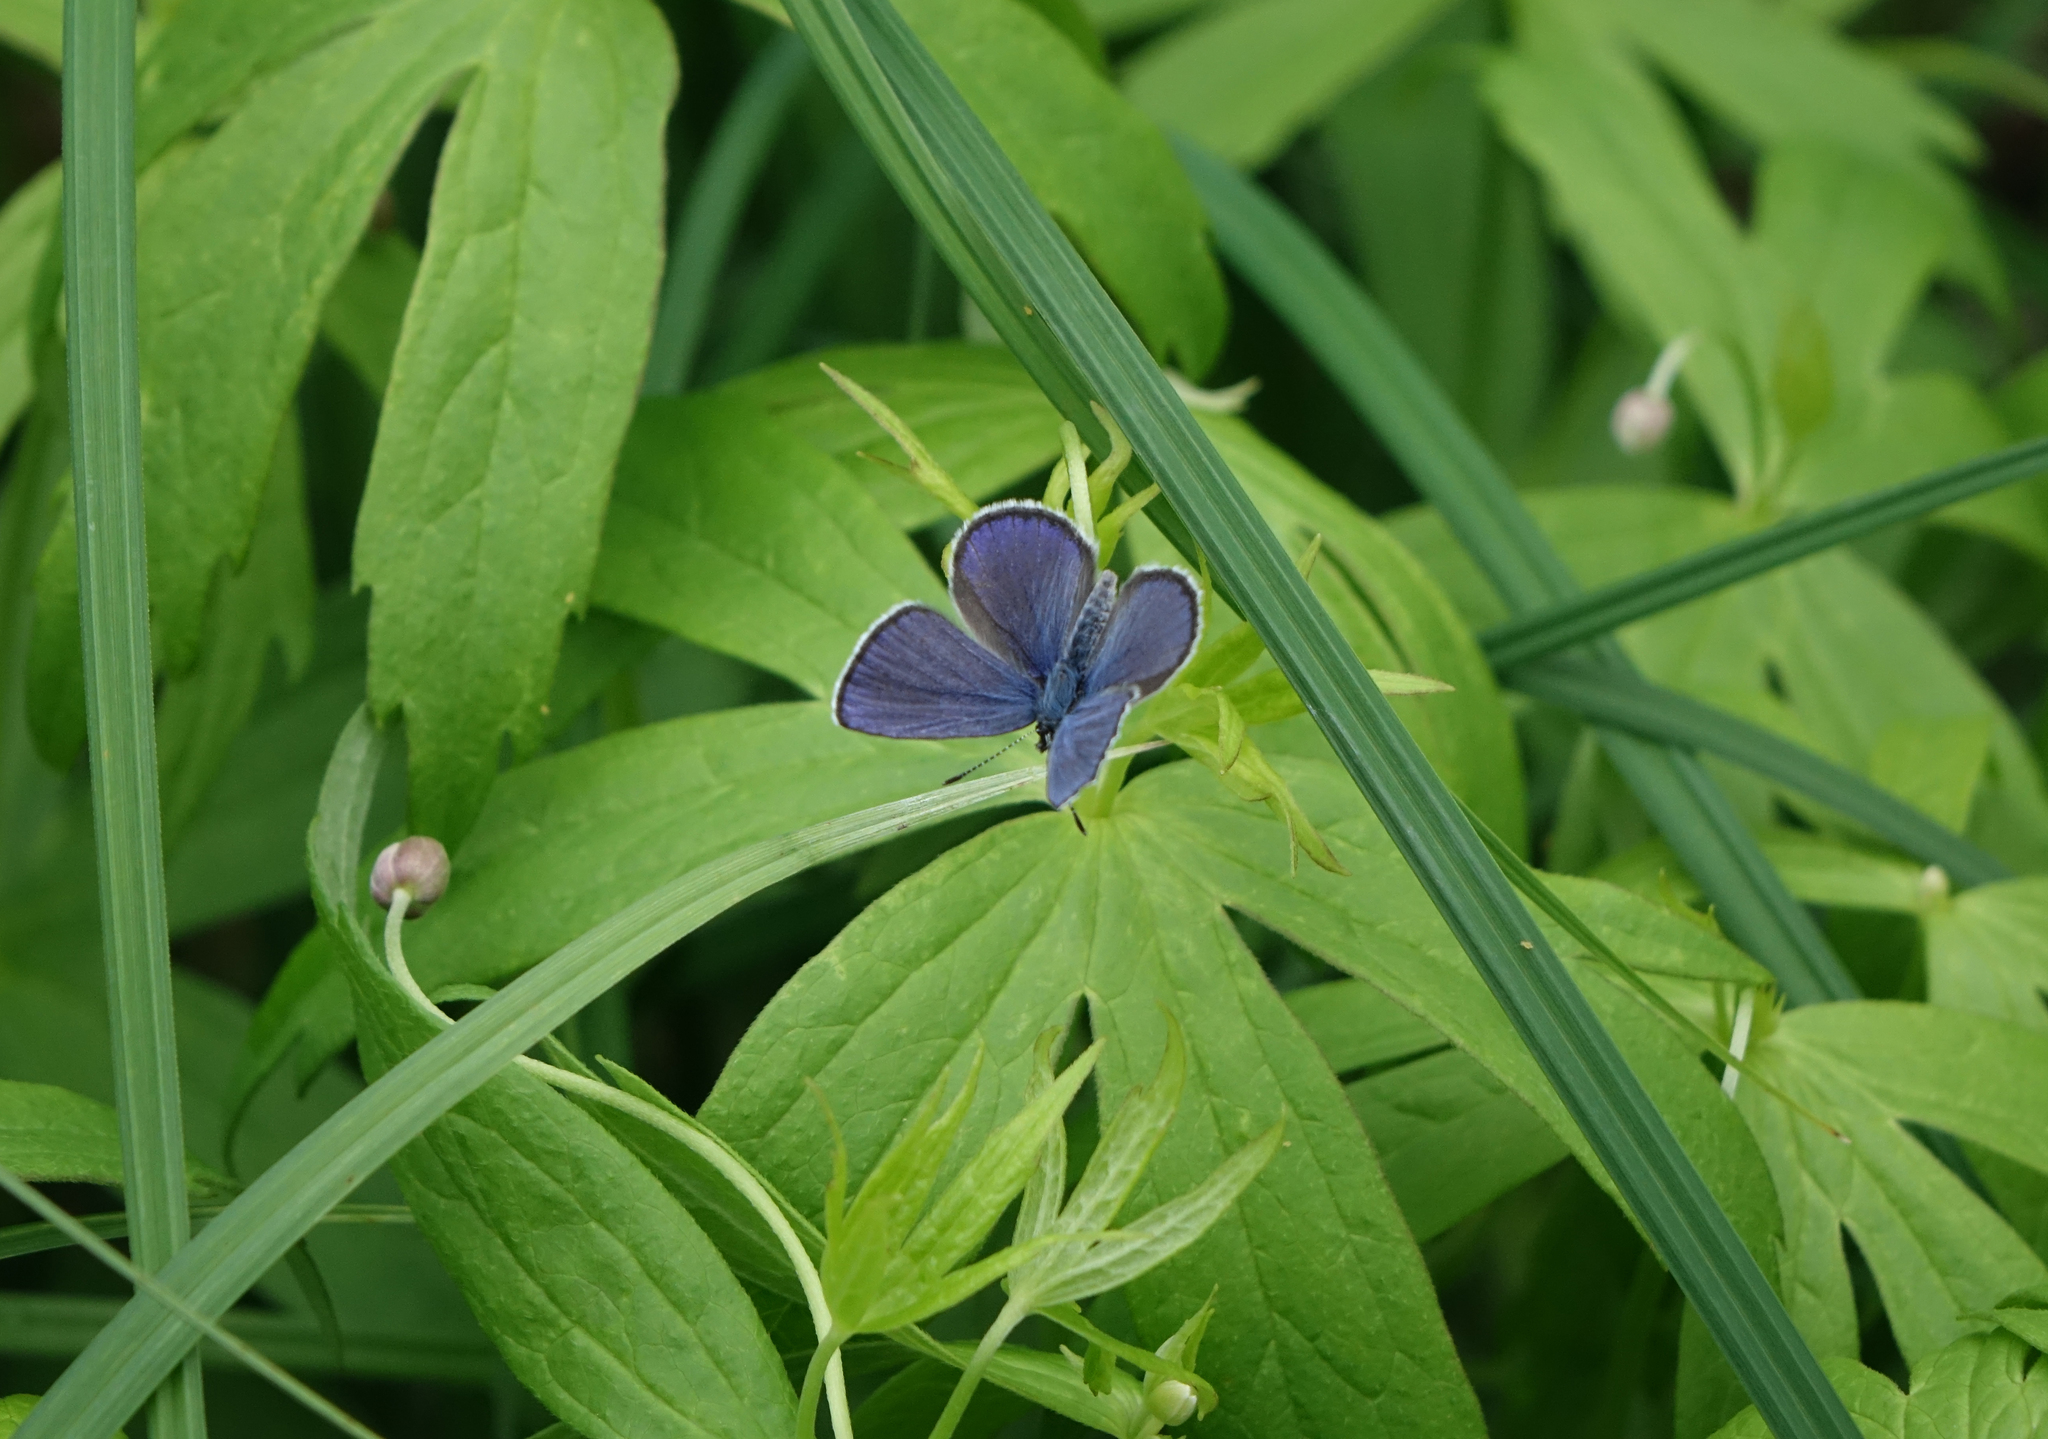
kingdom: Animalia
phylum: Arthropoda
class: Insecta
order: Lepidoptera
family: Lycaenidae
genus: Vacciniina
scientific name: Vacciniina optilete
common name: Cranberry blue
